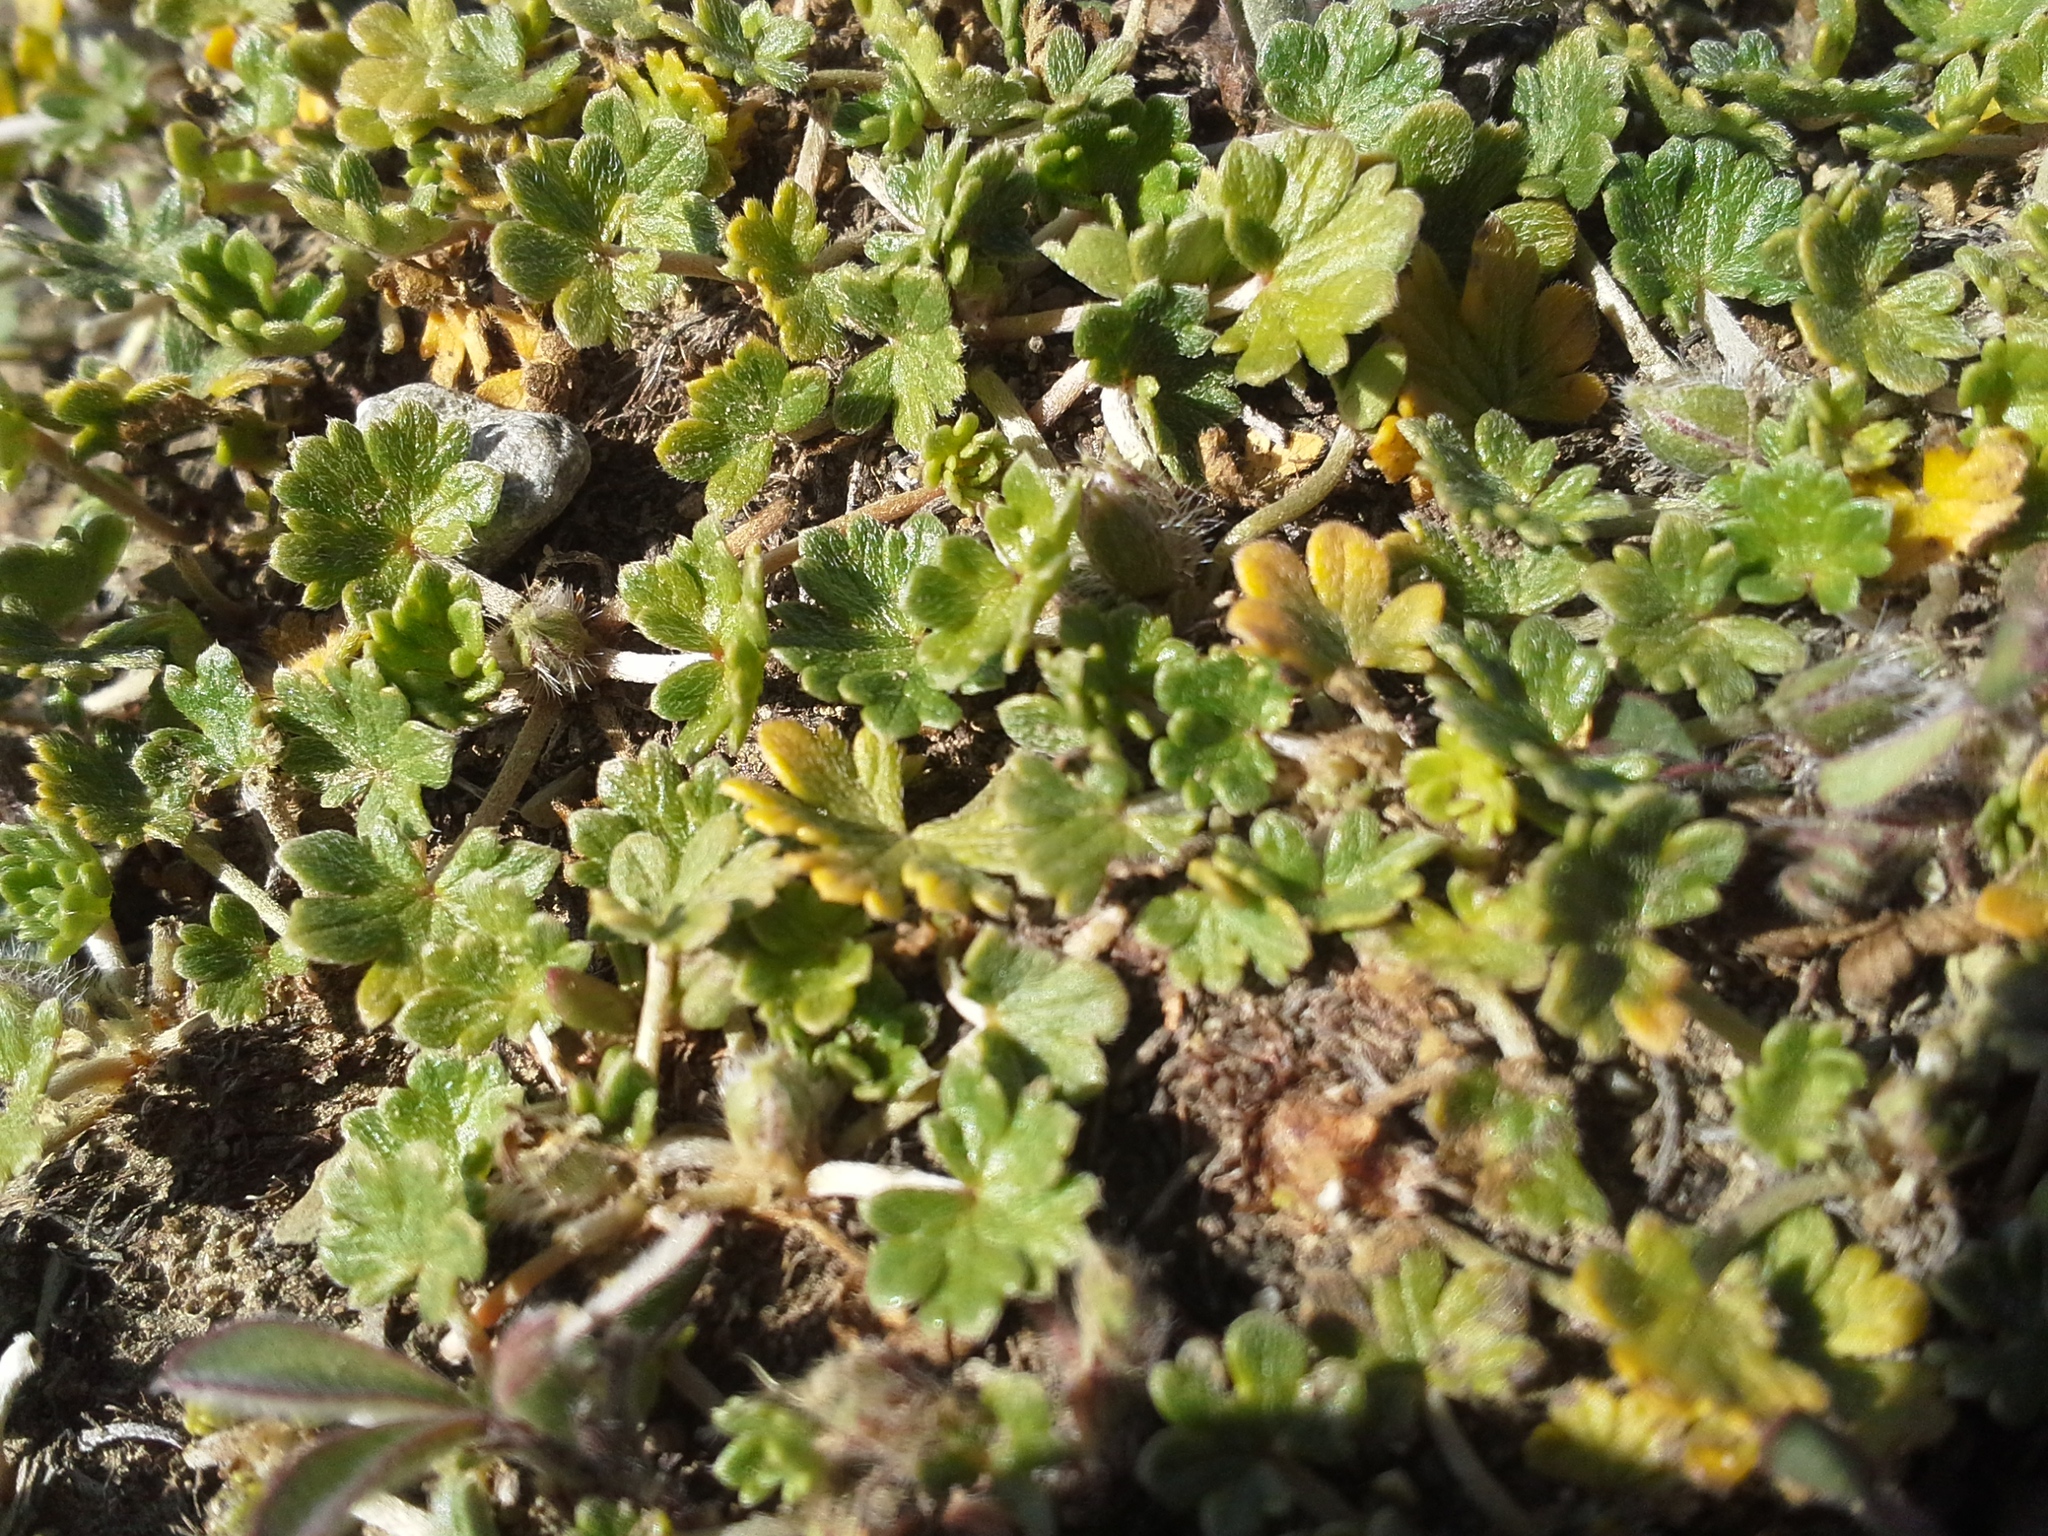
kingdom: Plantae
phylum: Tracheophyta
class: Magnoliopsida
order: Geraniales
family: Geraniaceae
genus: Geranium
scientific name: Geranium brevicaule
